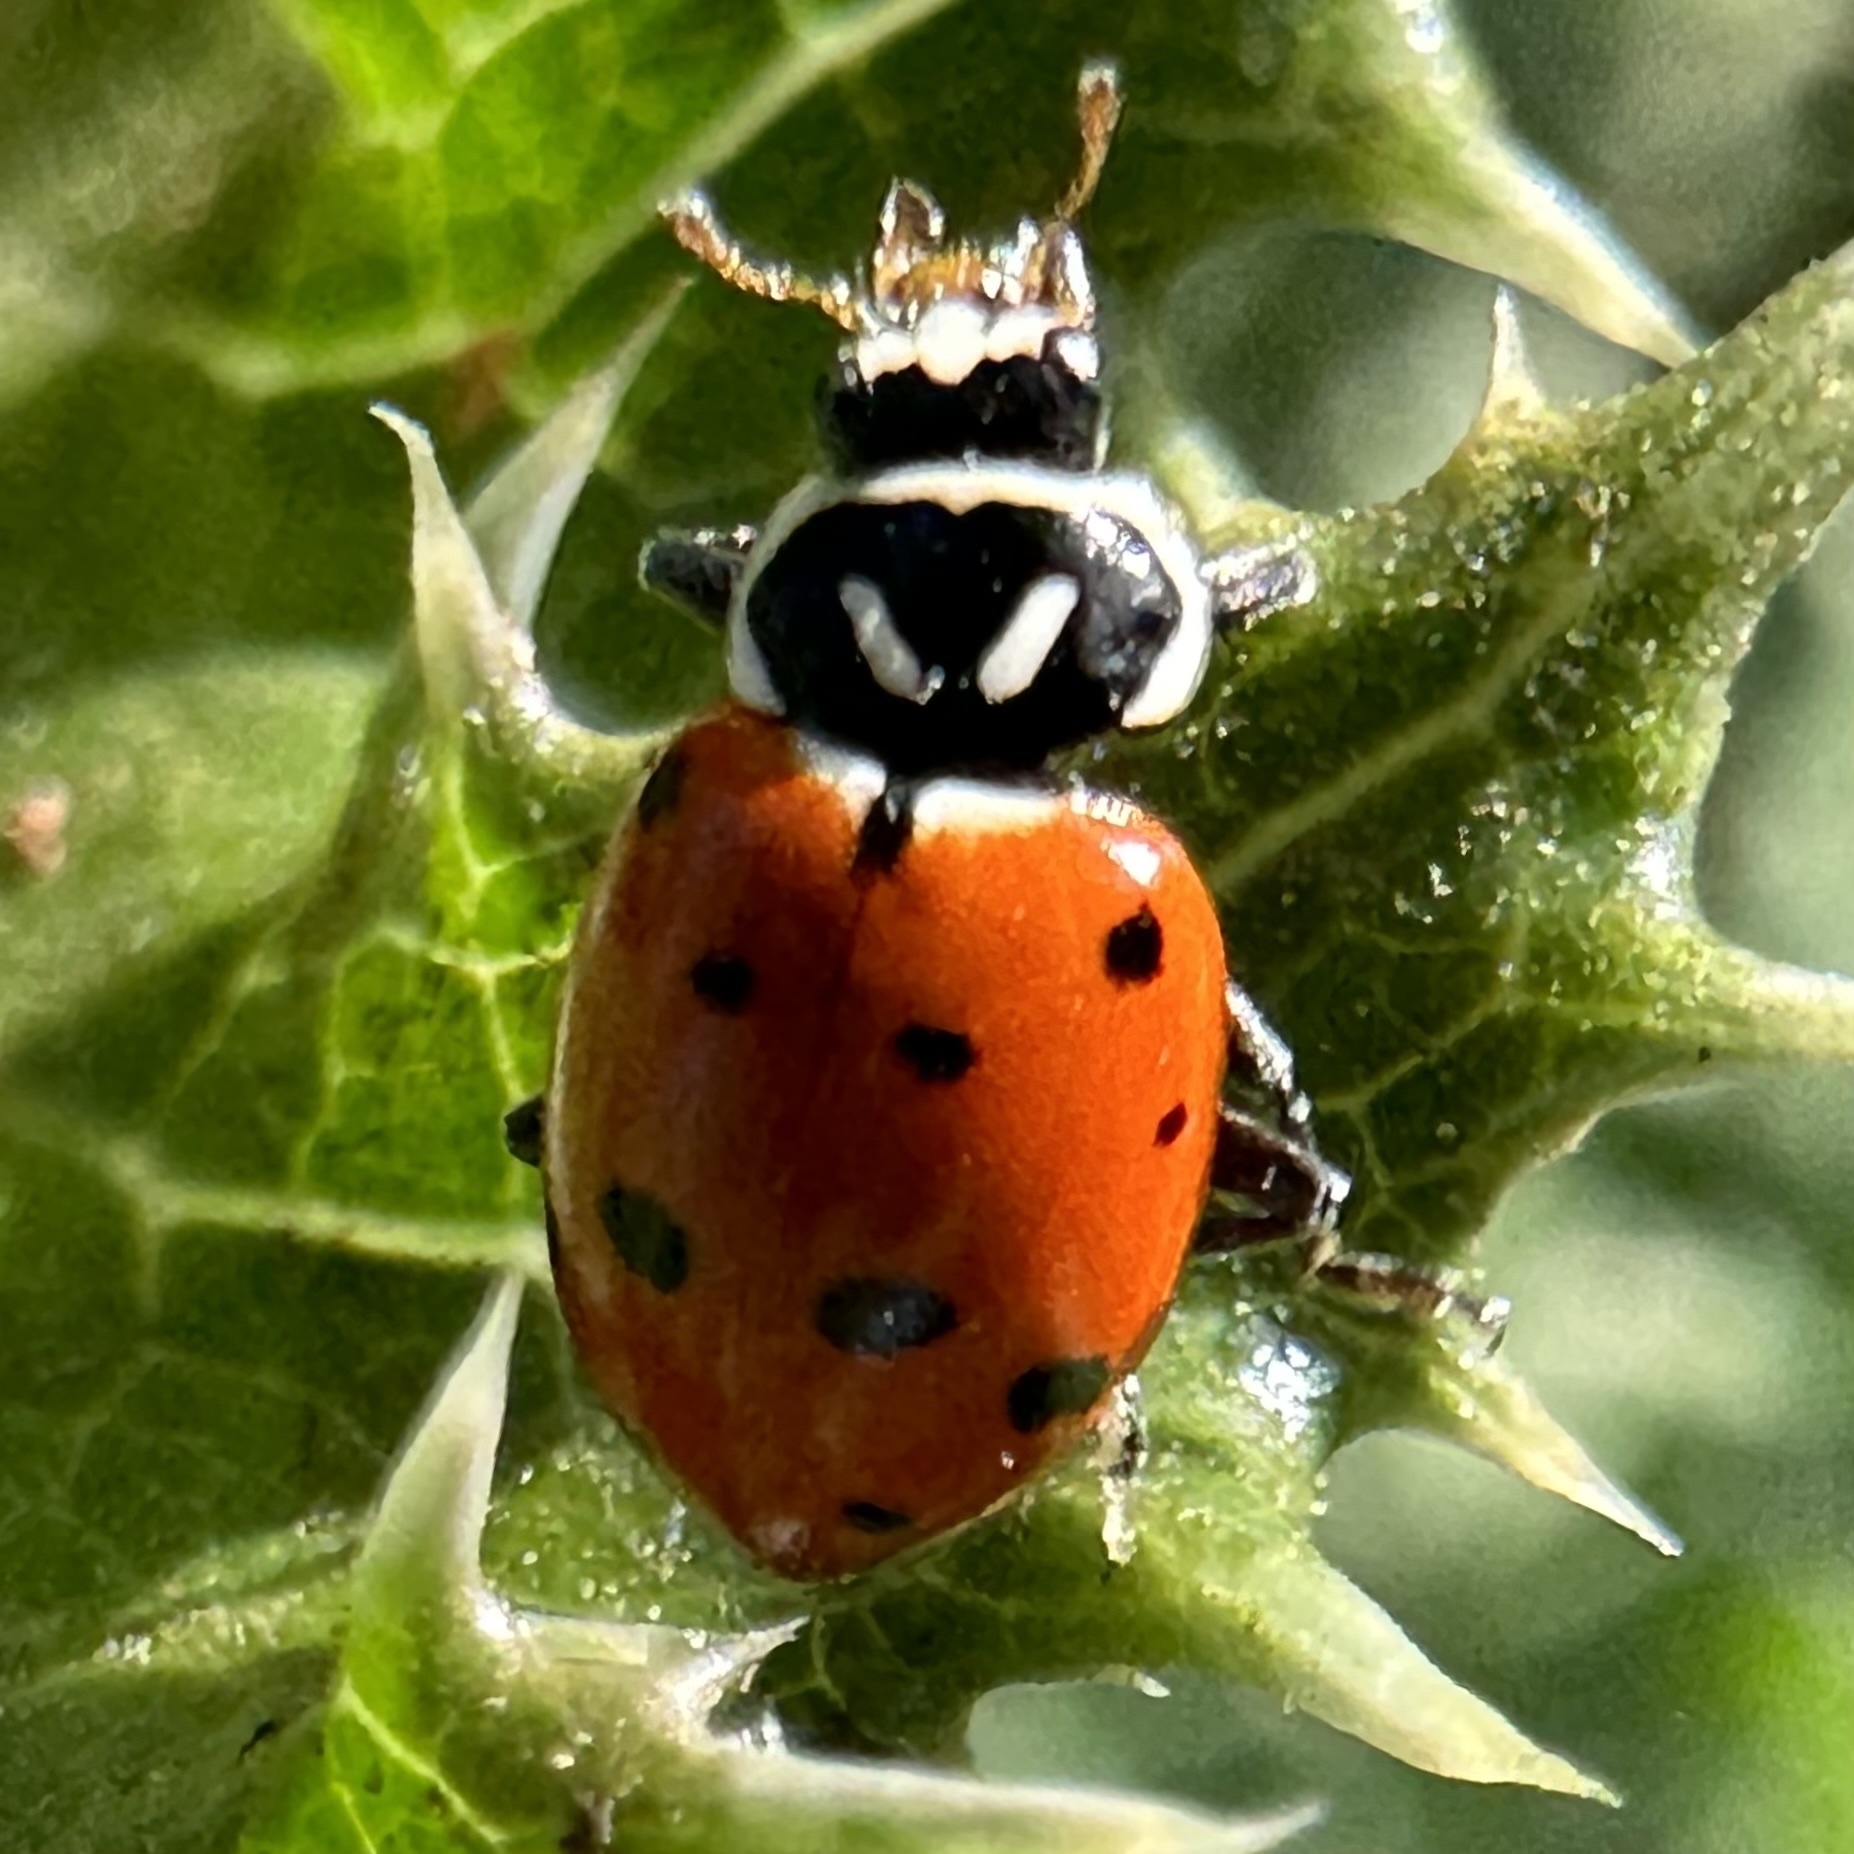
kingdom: Animalia
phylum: Arthropoda
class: Insecta
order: Coleoptera
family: Coccinellidae
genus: Hippodamia
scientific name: Hippodamia convergens
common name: Convergent lady beetle
